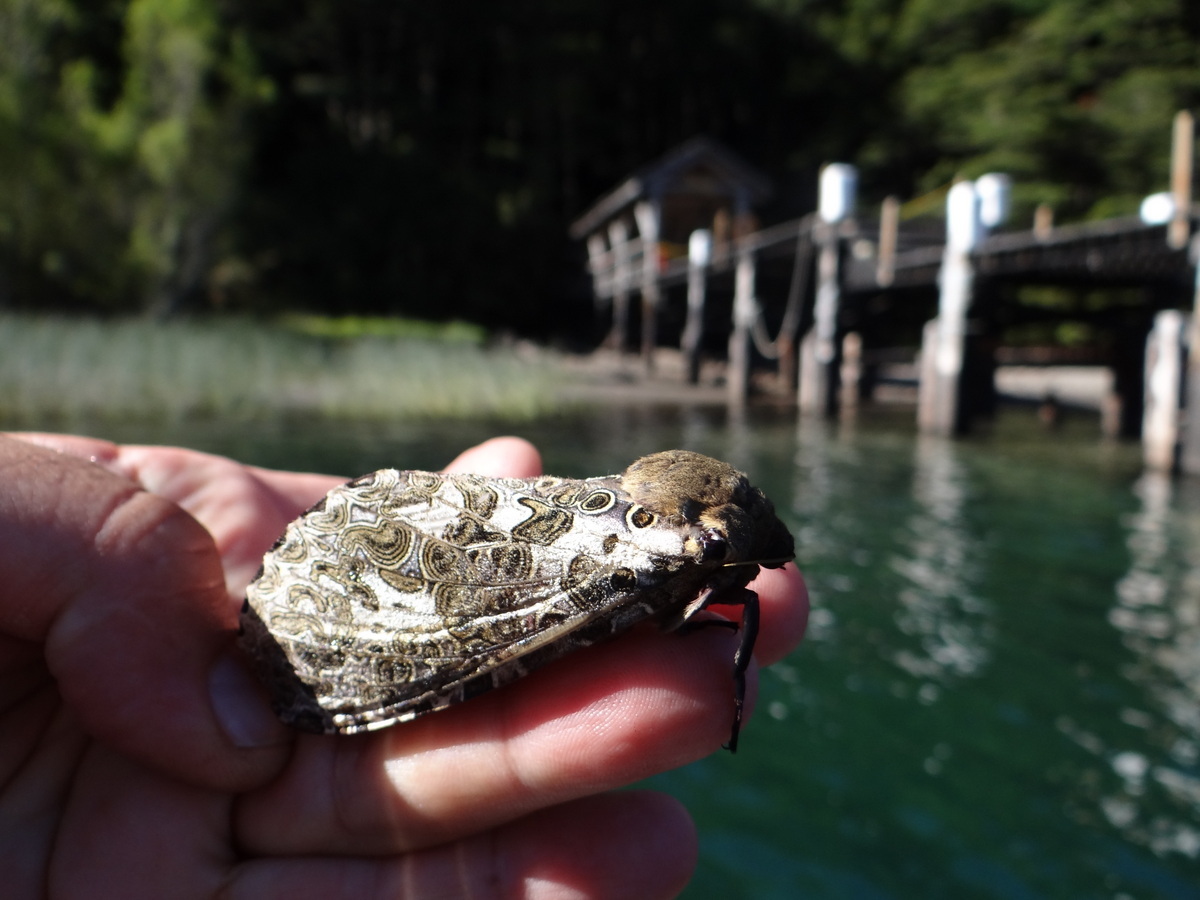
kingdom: Animalia
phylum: Arthropoda
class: Insecta
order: Lepidoptera
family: Hepialidae
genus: Andeabatis
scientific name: Andeabatis chilensis
